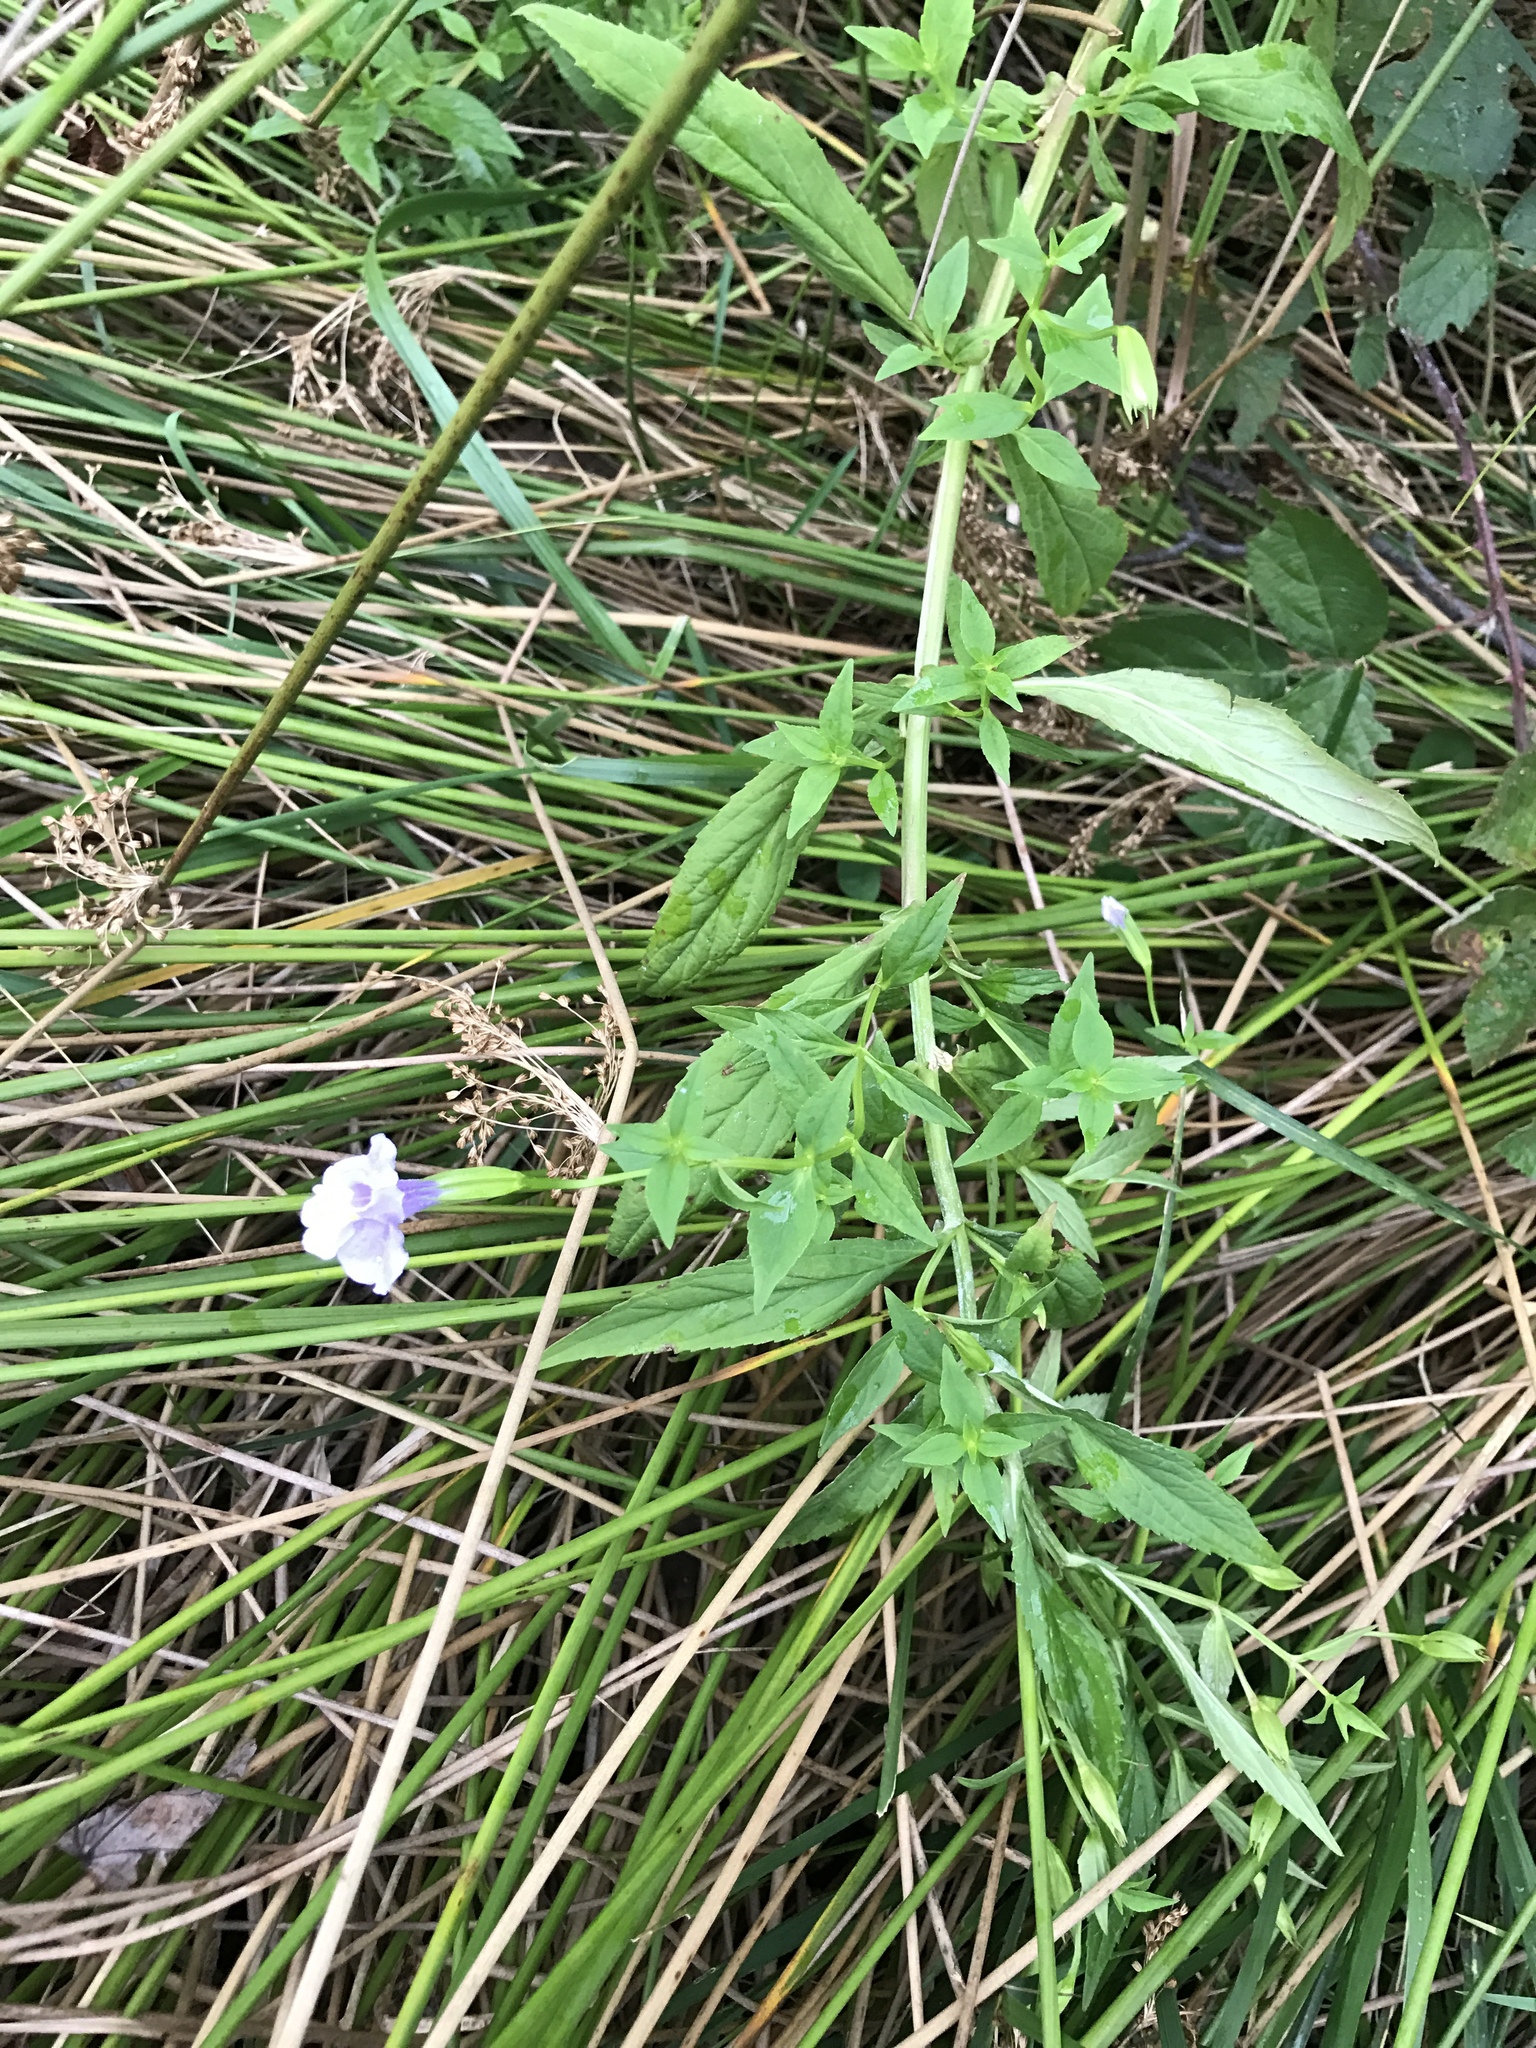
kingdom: Plantae
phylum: Tracheophyta
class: Magnoliopsida
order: Lamiales
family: Phrymaceae
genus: Mimulus
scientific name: Mimulus ringens
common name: Allegheny monkeyflower
